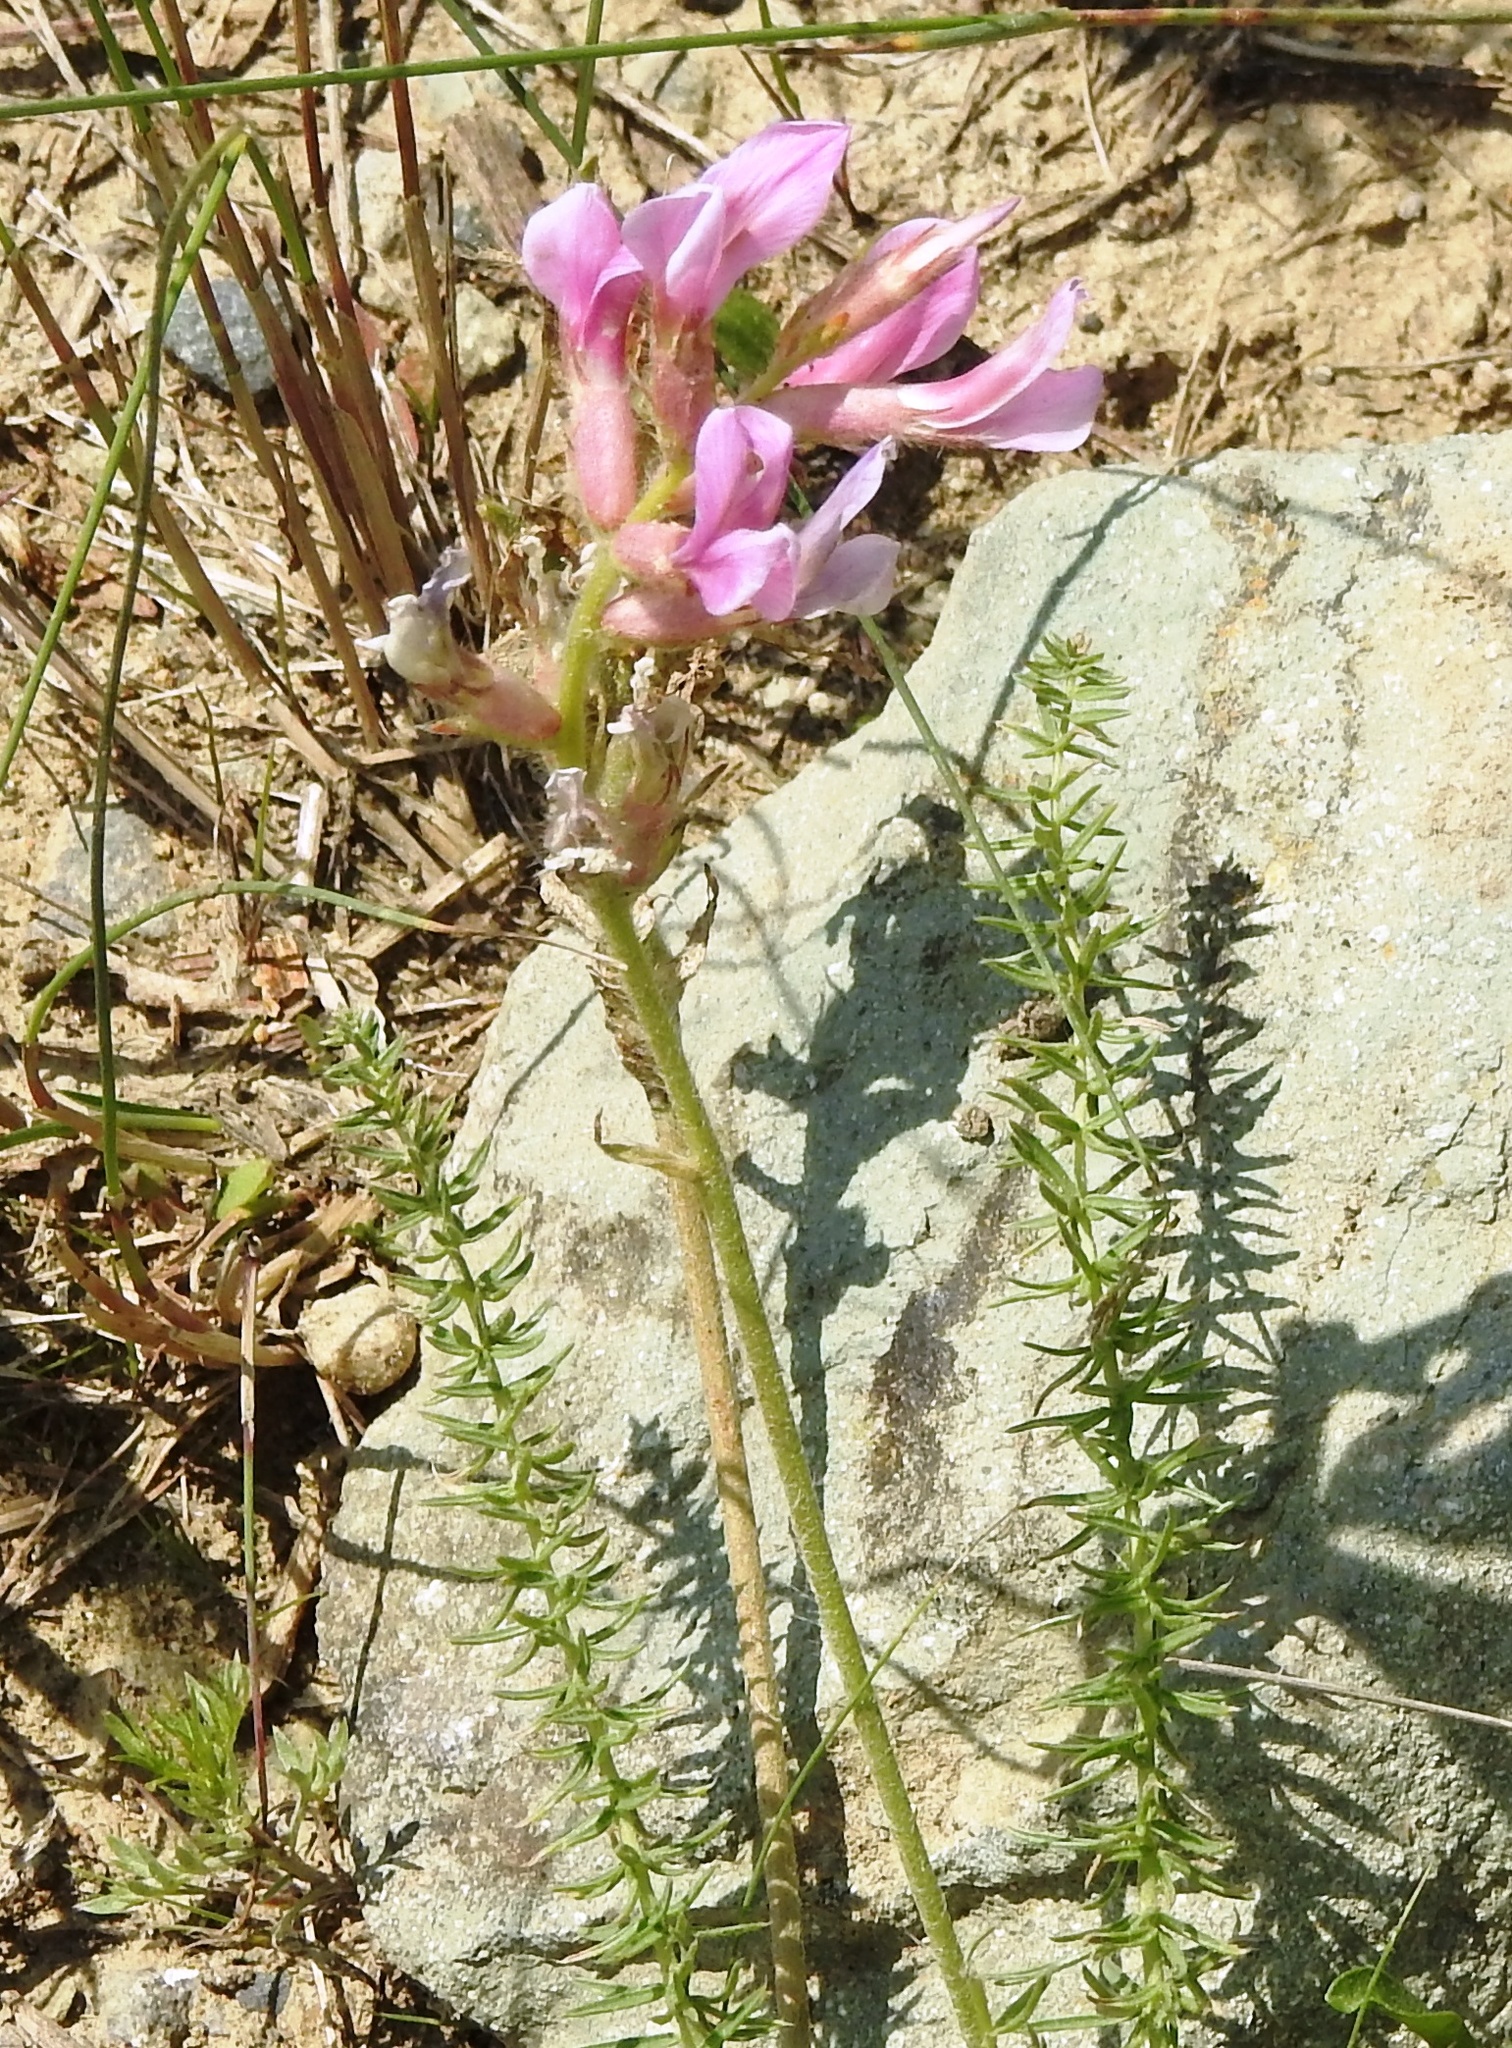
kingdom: Plantae
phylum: Tracheophyta
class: Magnoliopsida
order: Fabales
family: Fabaceae
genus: Oxytropis
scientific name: Oxytropis myriophylla
